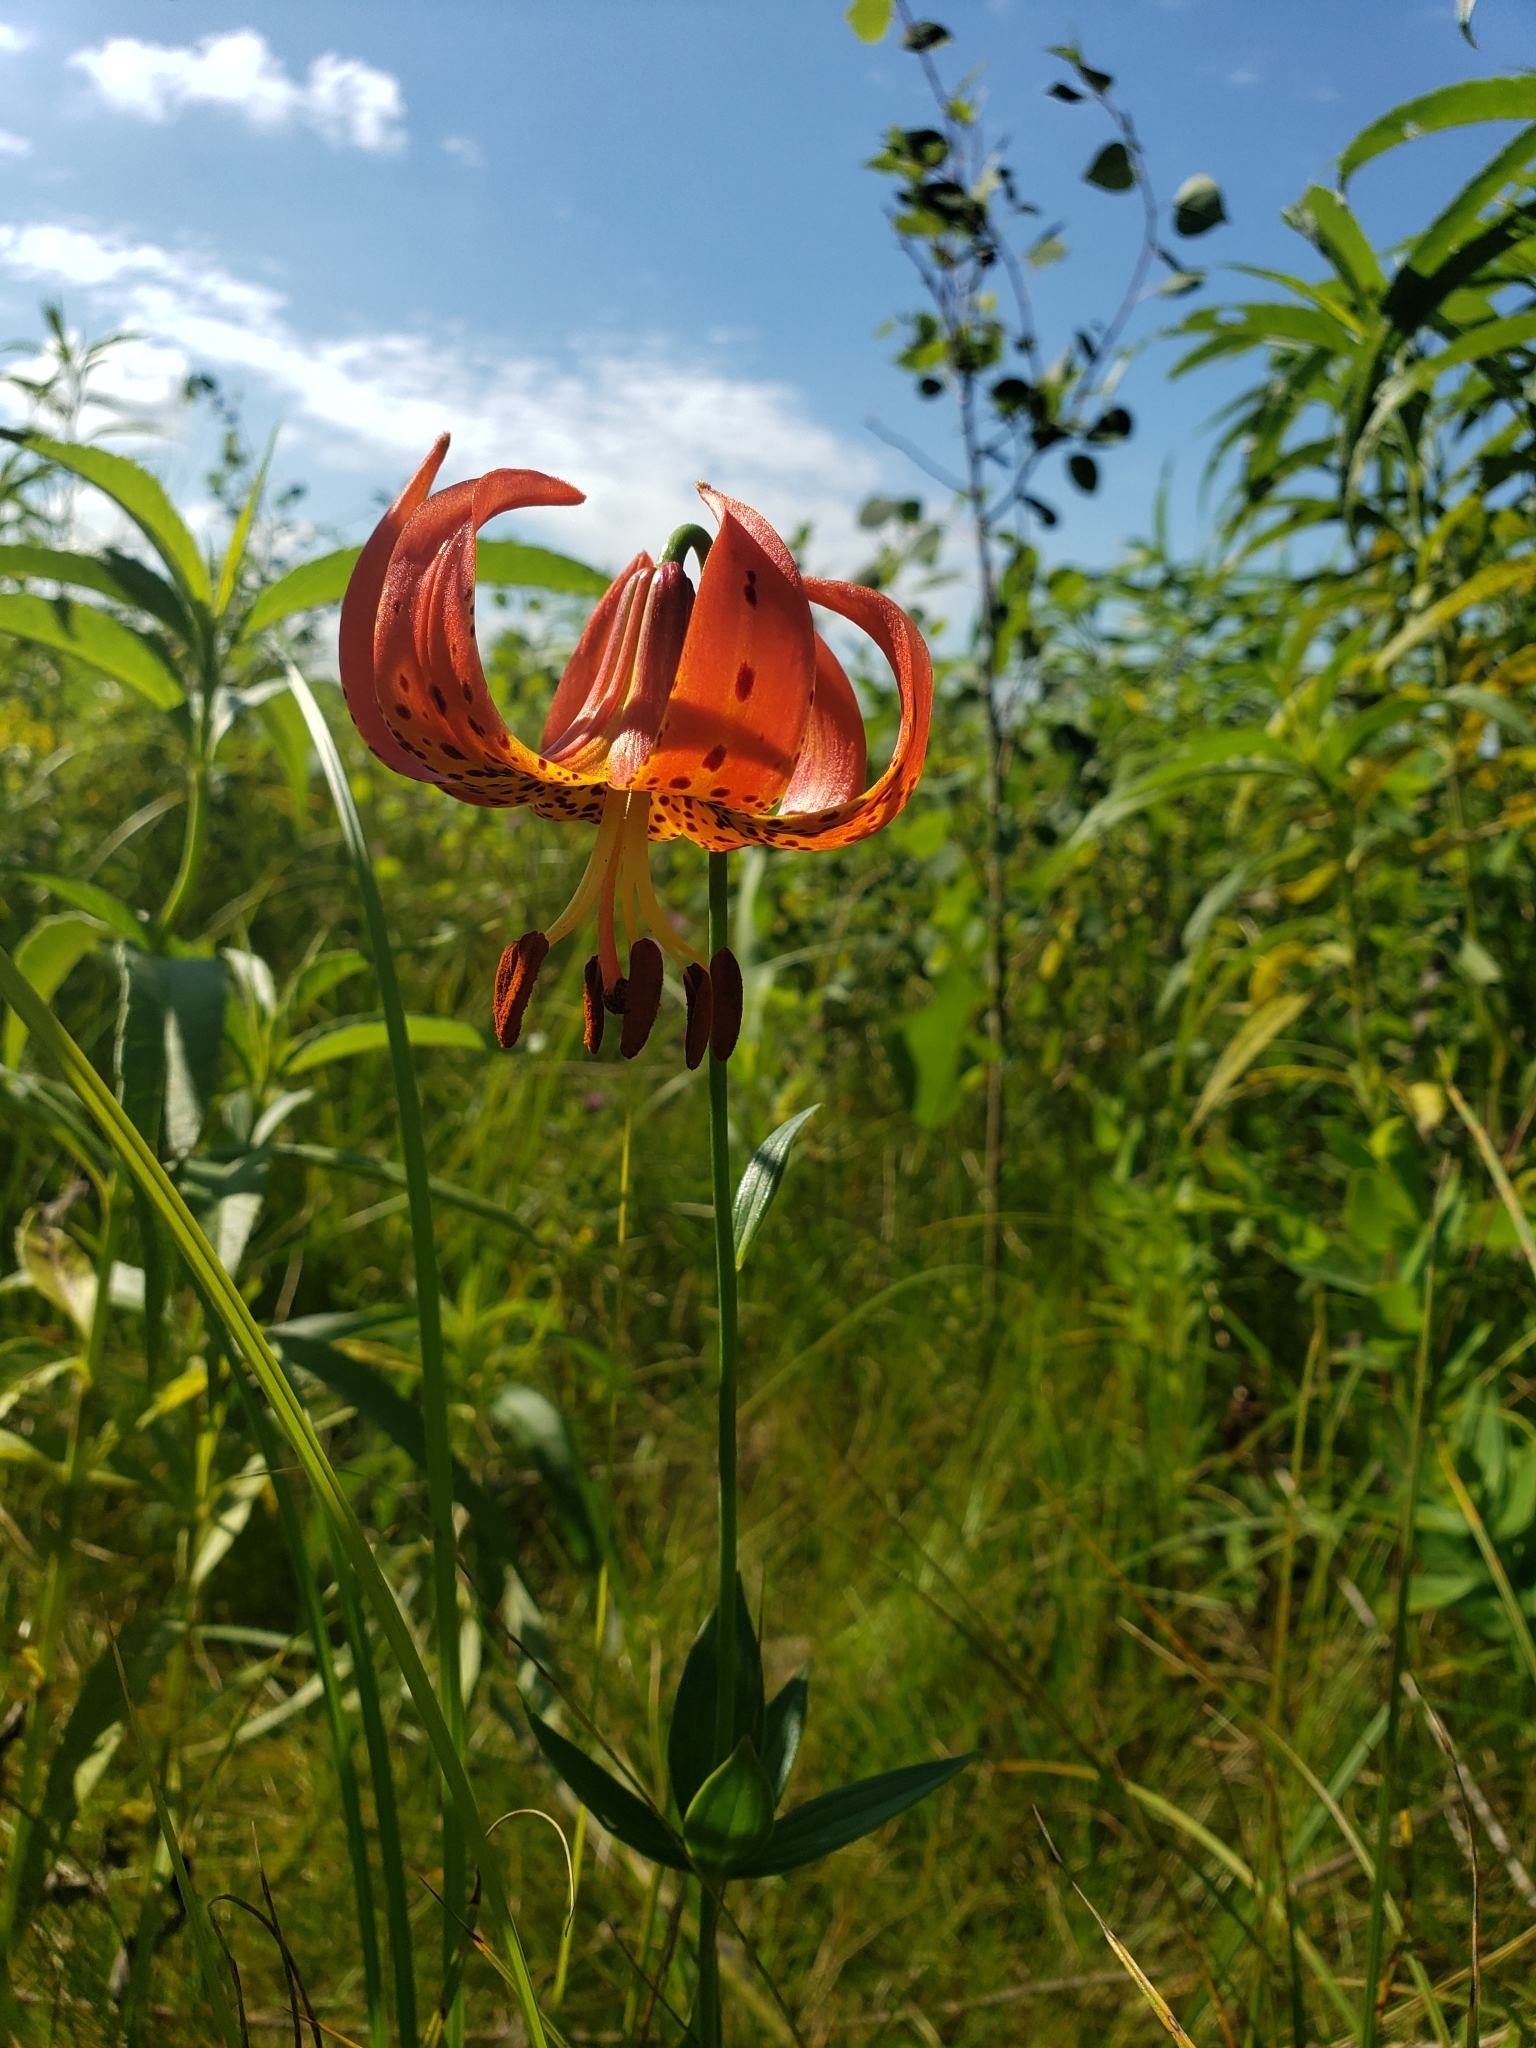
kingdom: Plantae
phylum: Tracheophyta
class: Liliopsida
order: Liliales
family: Liliaceae
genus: Lilium
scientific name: Lilium michiganense
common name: Michigan lily
